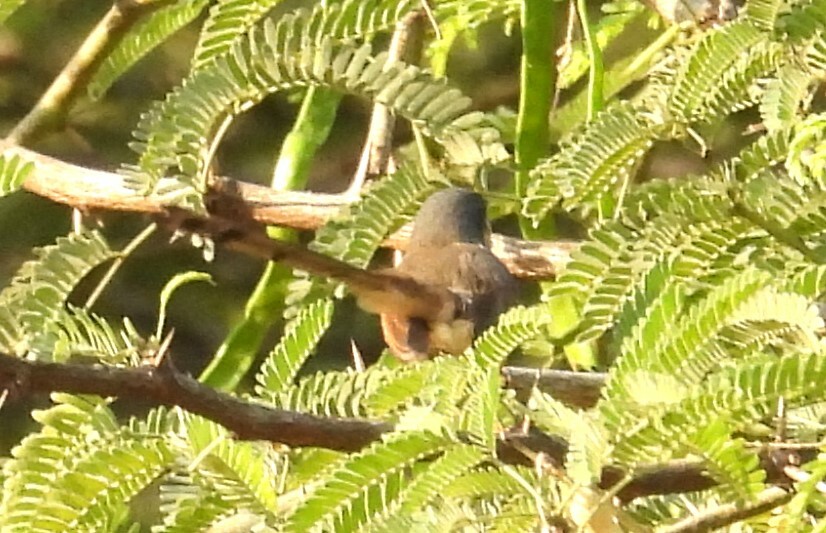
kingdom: Animalia
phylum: Chordata
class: Aves
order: Passeriformes
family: Cisticolidae
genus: Prinia
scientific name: Prinia socialis
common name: Ashy prinia
